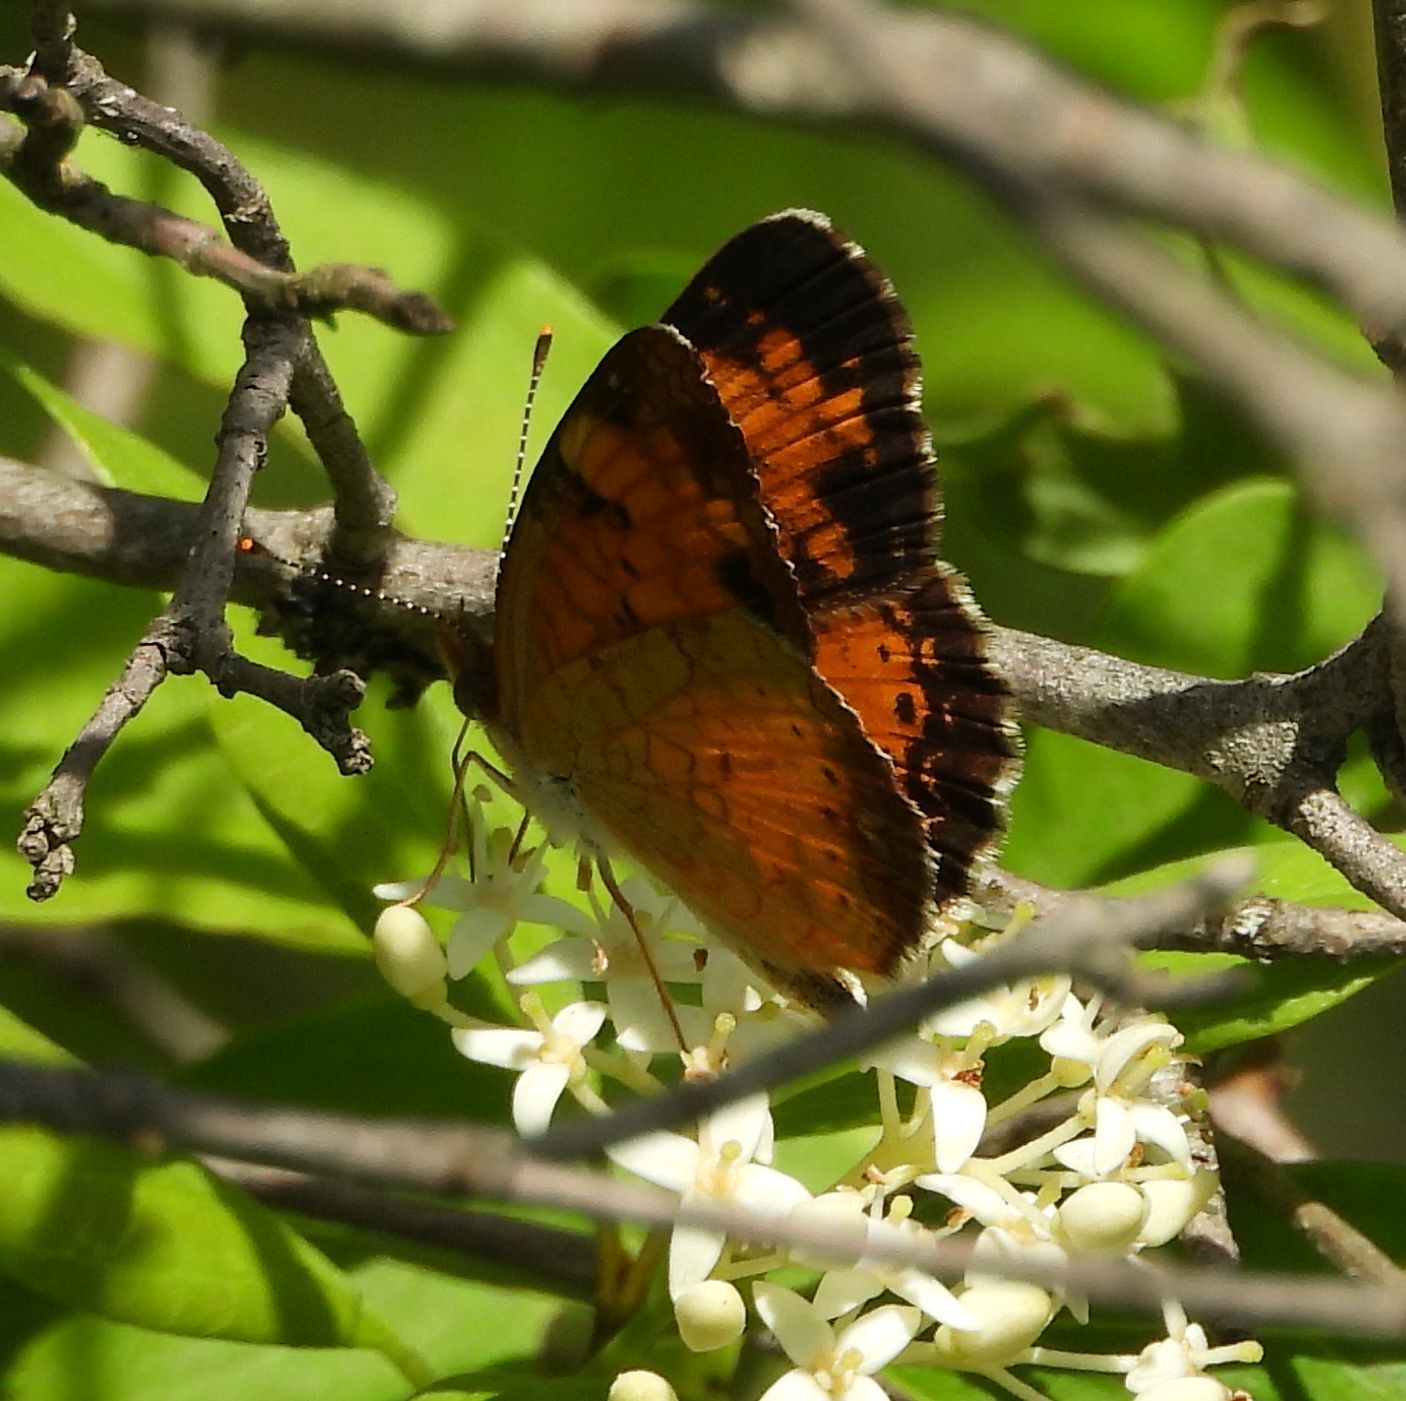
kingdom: Animalia
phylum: Arthropoda
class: Insecta
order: Lepidoptera
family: Nymphalidae
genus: Phyciodes
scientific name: Phyciodes tharos
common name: Pearl crescent
